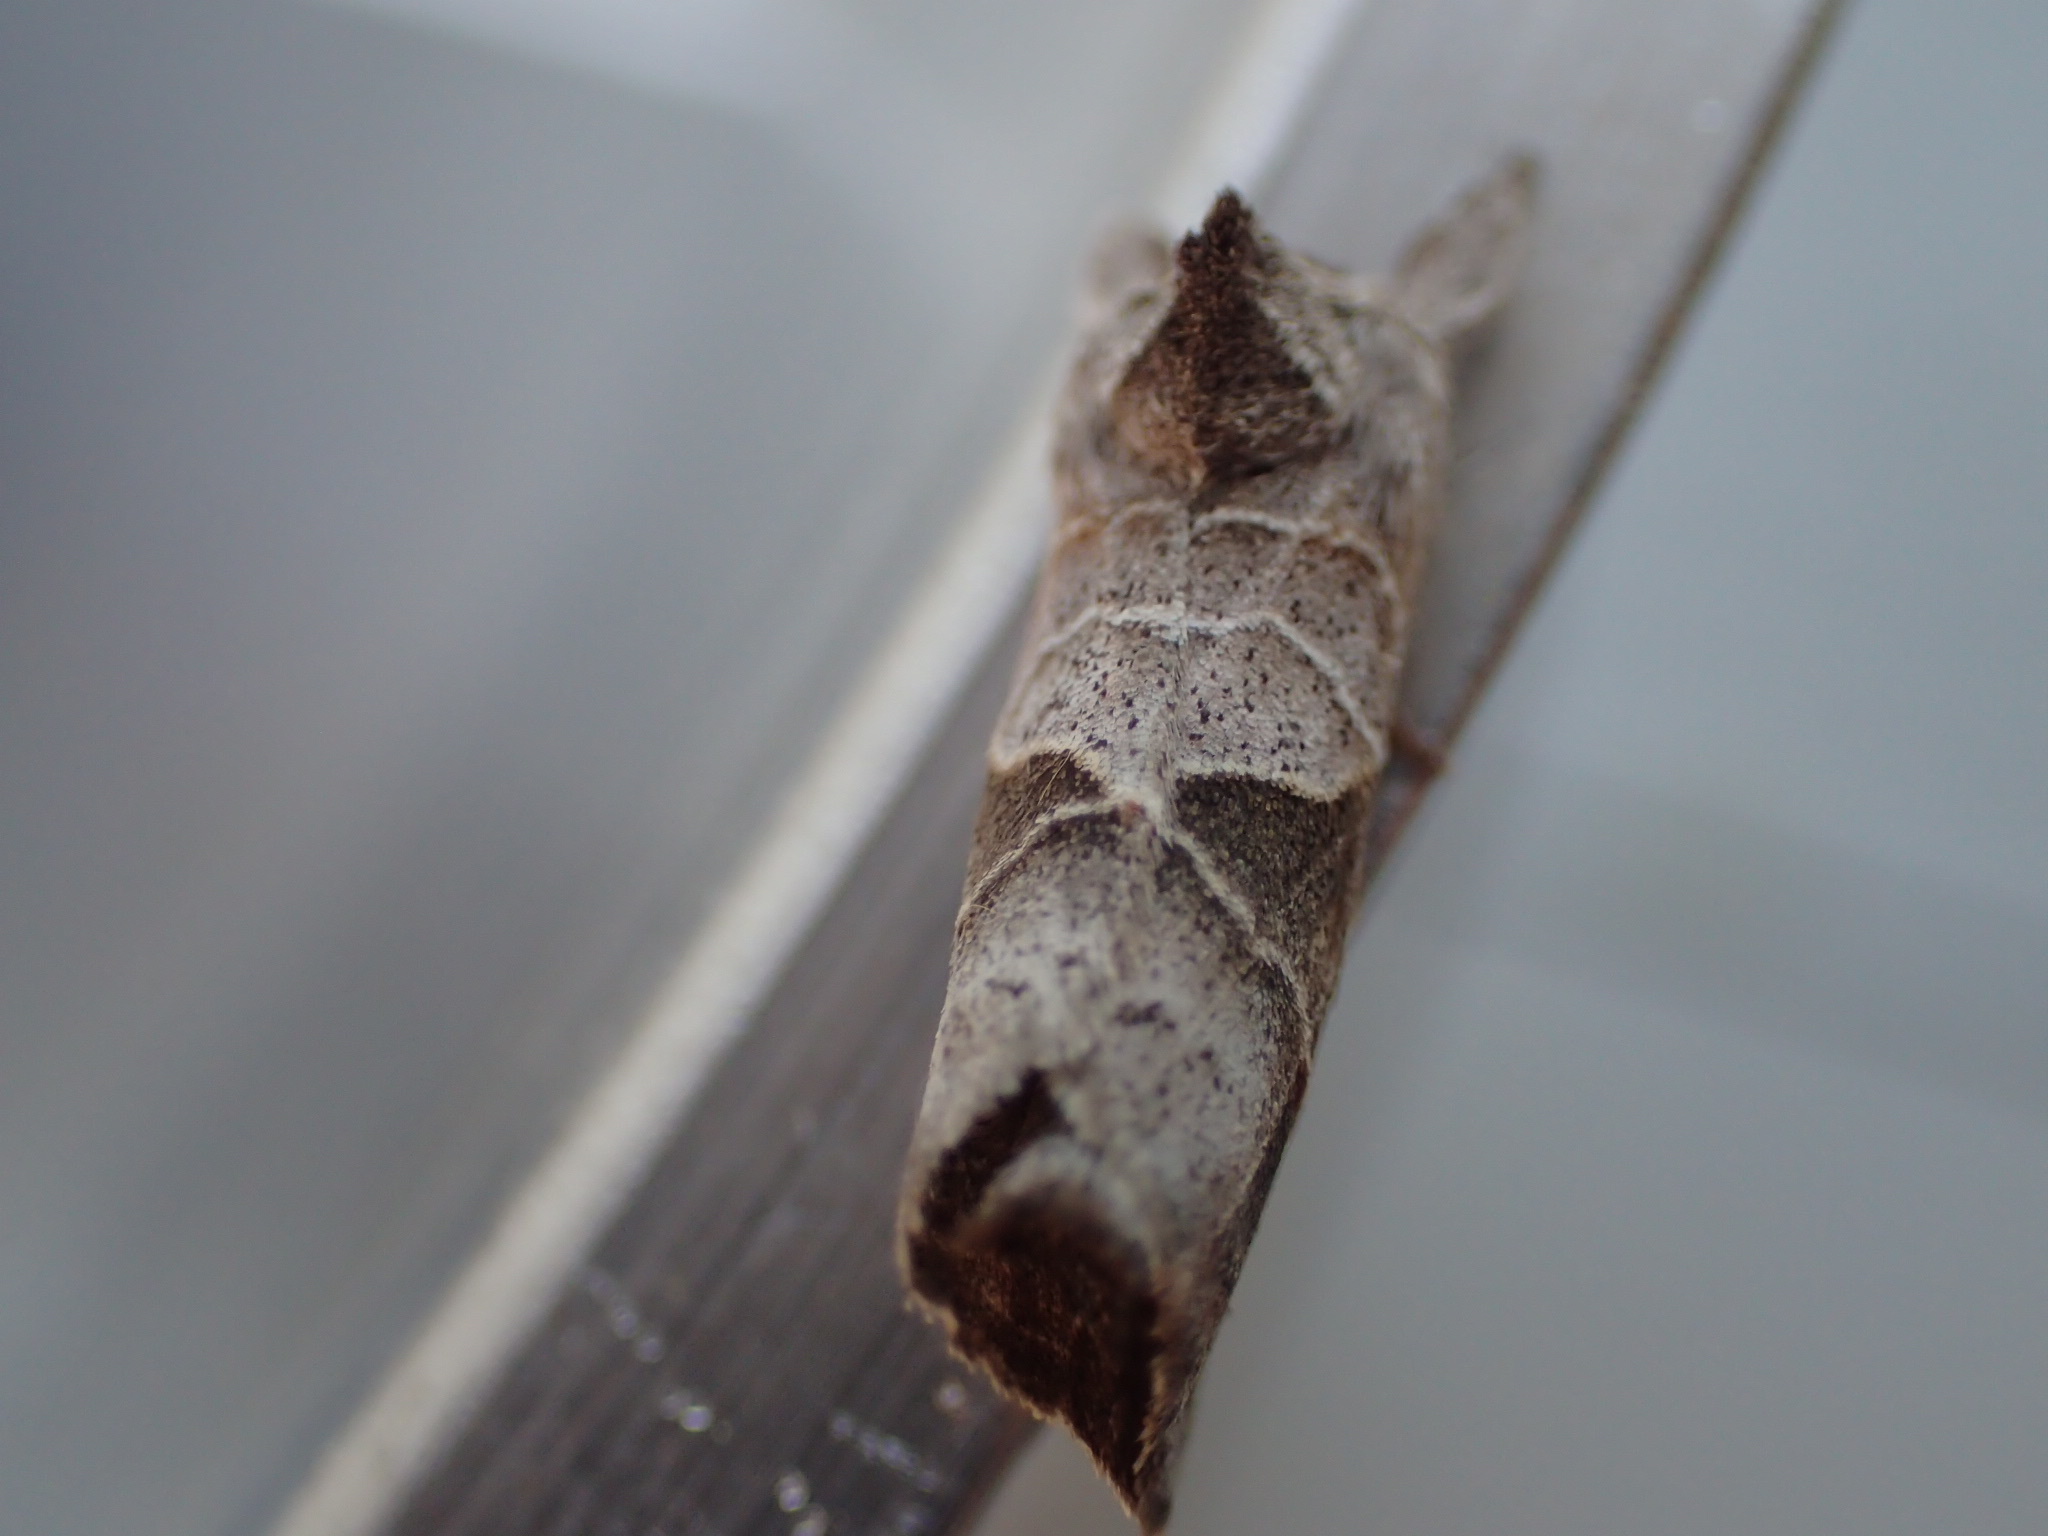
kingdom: Animalia
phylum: Arthropoda
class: Insecta
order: Lepidoptera
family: Notodontidae
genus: Clostera
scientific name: Clostera apicalis
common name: Apical prominent
